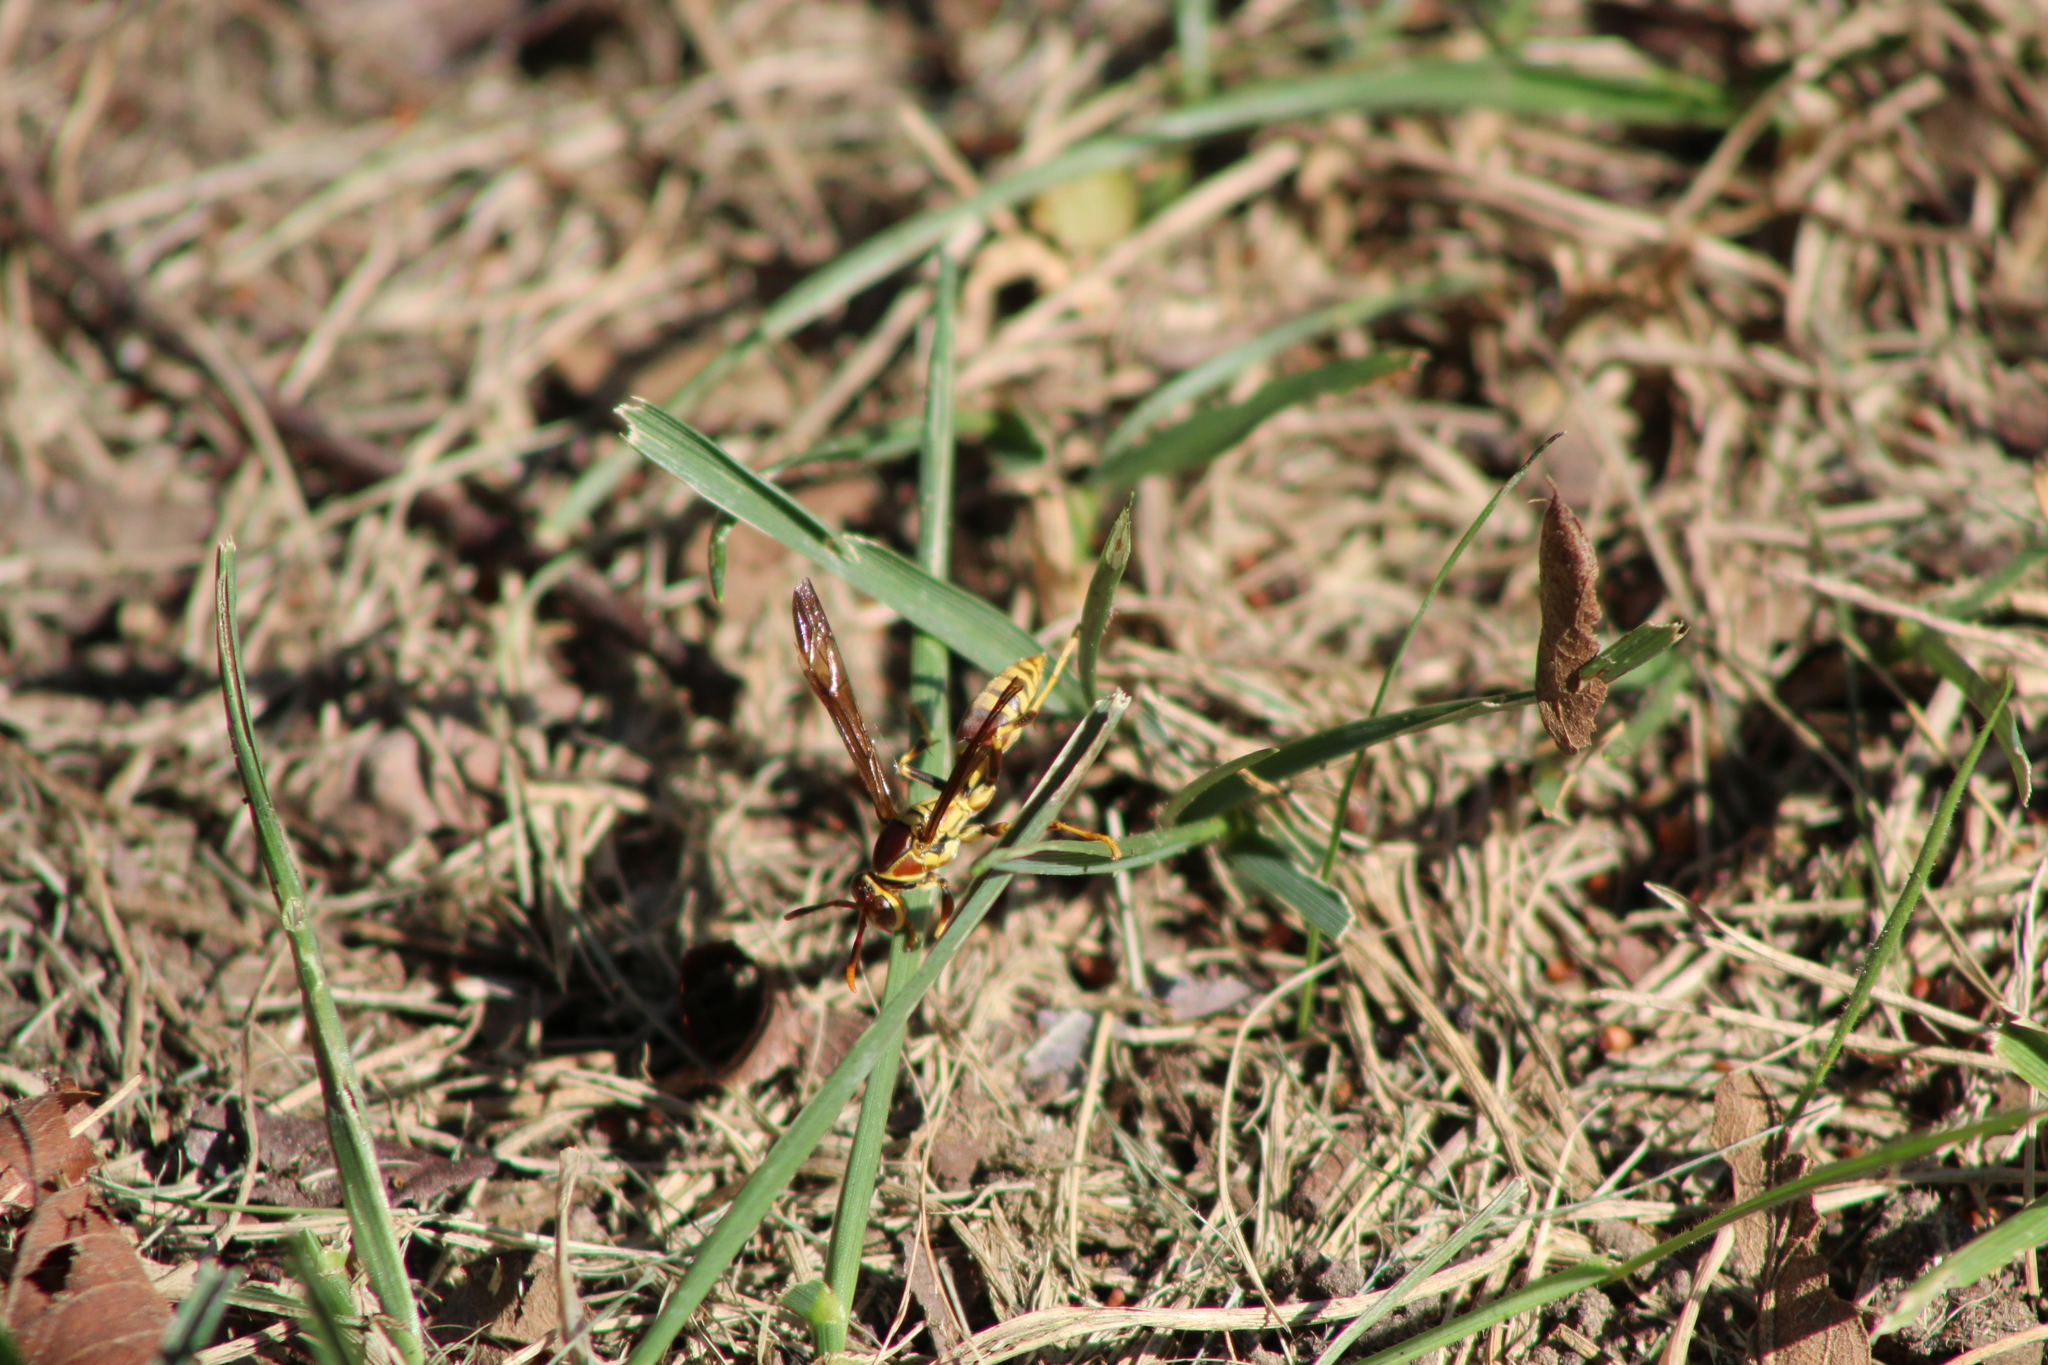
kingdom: Animalia
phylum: Arthropoda
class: Insecta
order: Hymenoptera
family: Eumenidae
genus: Polistes
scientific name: Polistes exclamans
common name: Paper wasp
